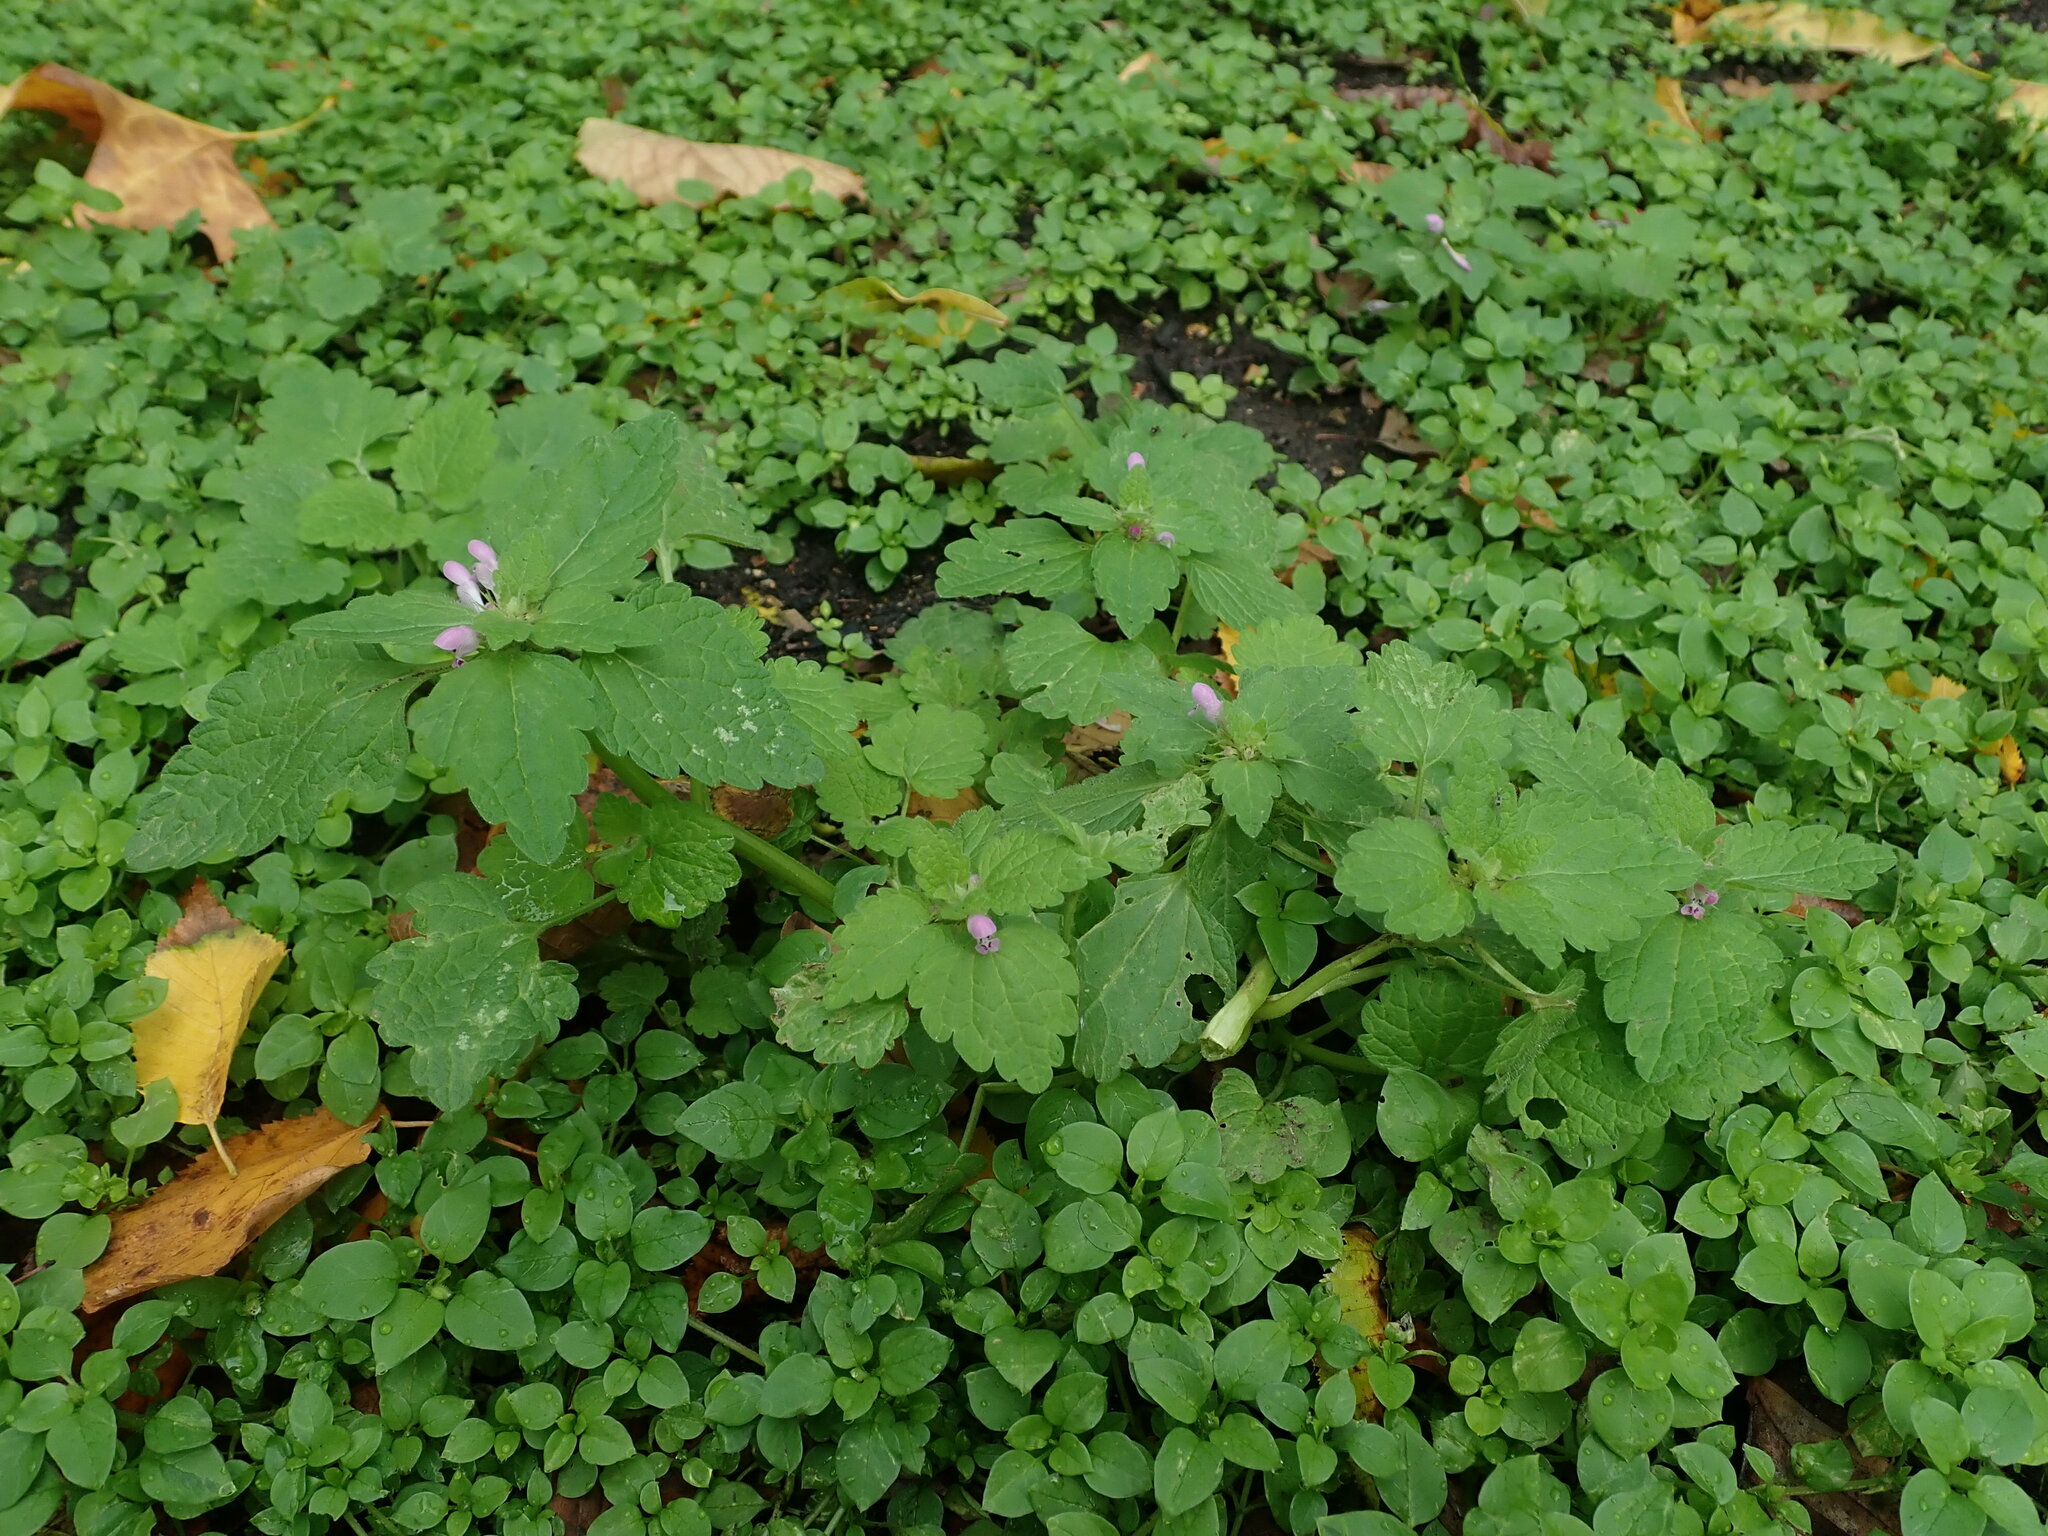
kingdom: Plantae
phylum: Tracheophyta
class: Magnoliopsida
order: Lamiales
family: Lamiaceae
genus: Lamium
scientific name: Lamium purpureum
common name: Red dead-nettle
